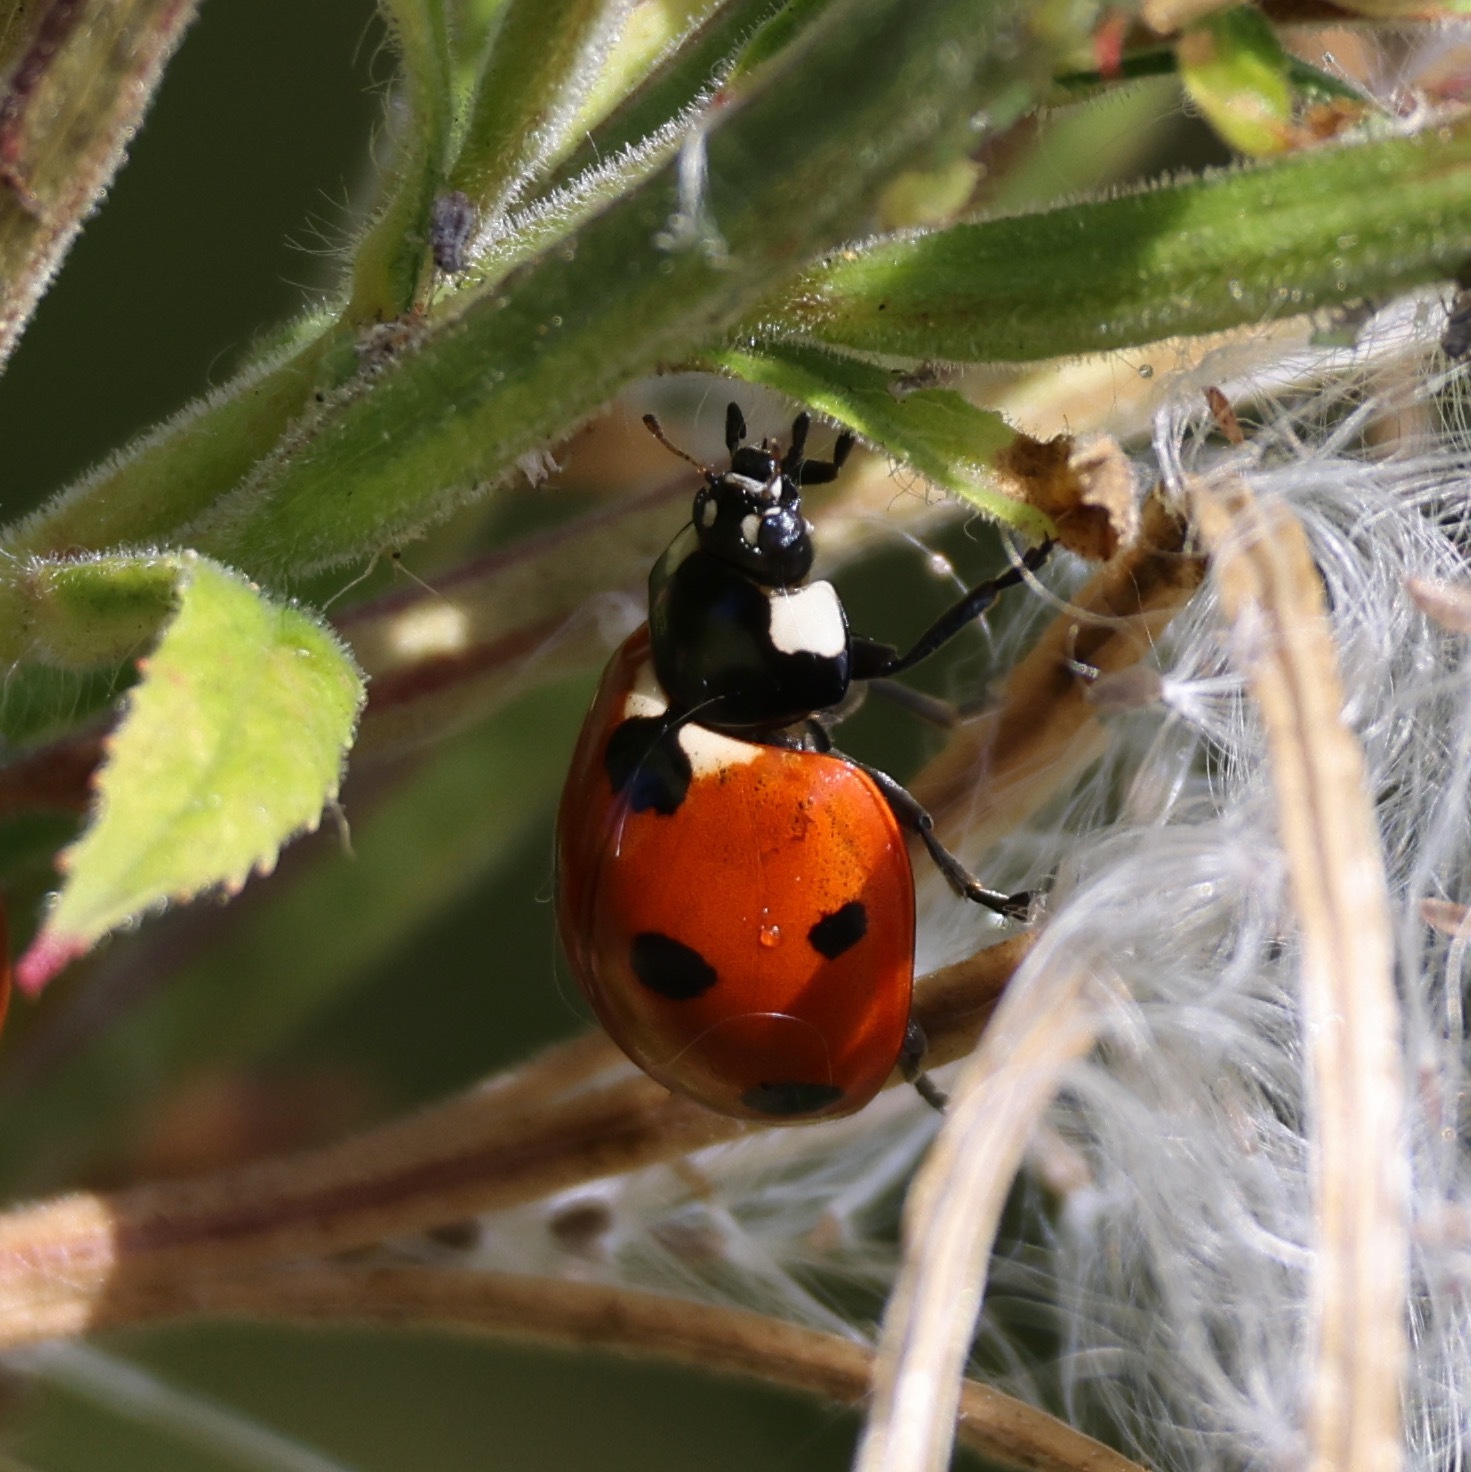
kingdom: Animalia
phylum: Arthropoda
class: Insecta
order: Coleoptera
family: Coccinellidae
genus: Coccinella
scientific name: Coccinella septempunctata
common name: Sevenspotted lady beetle
